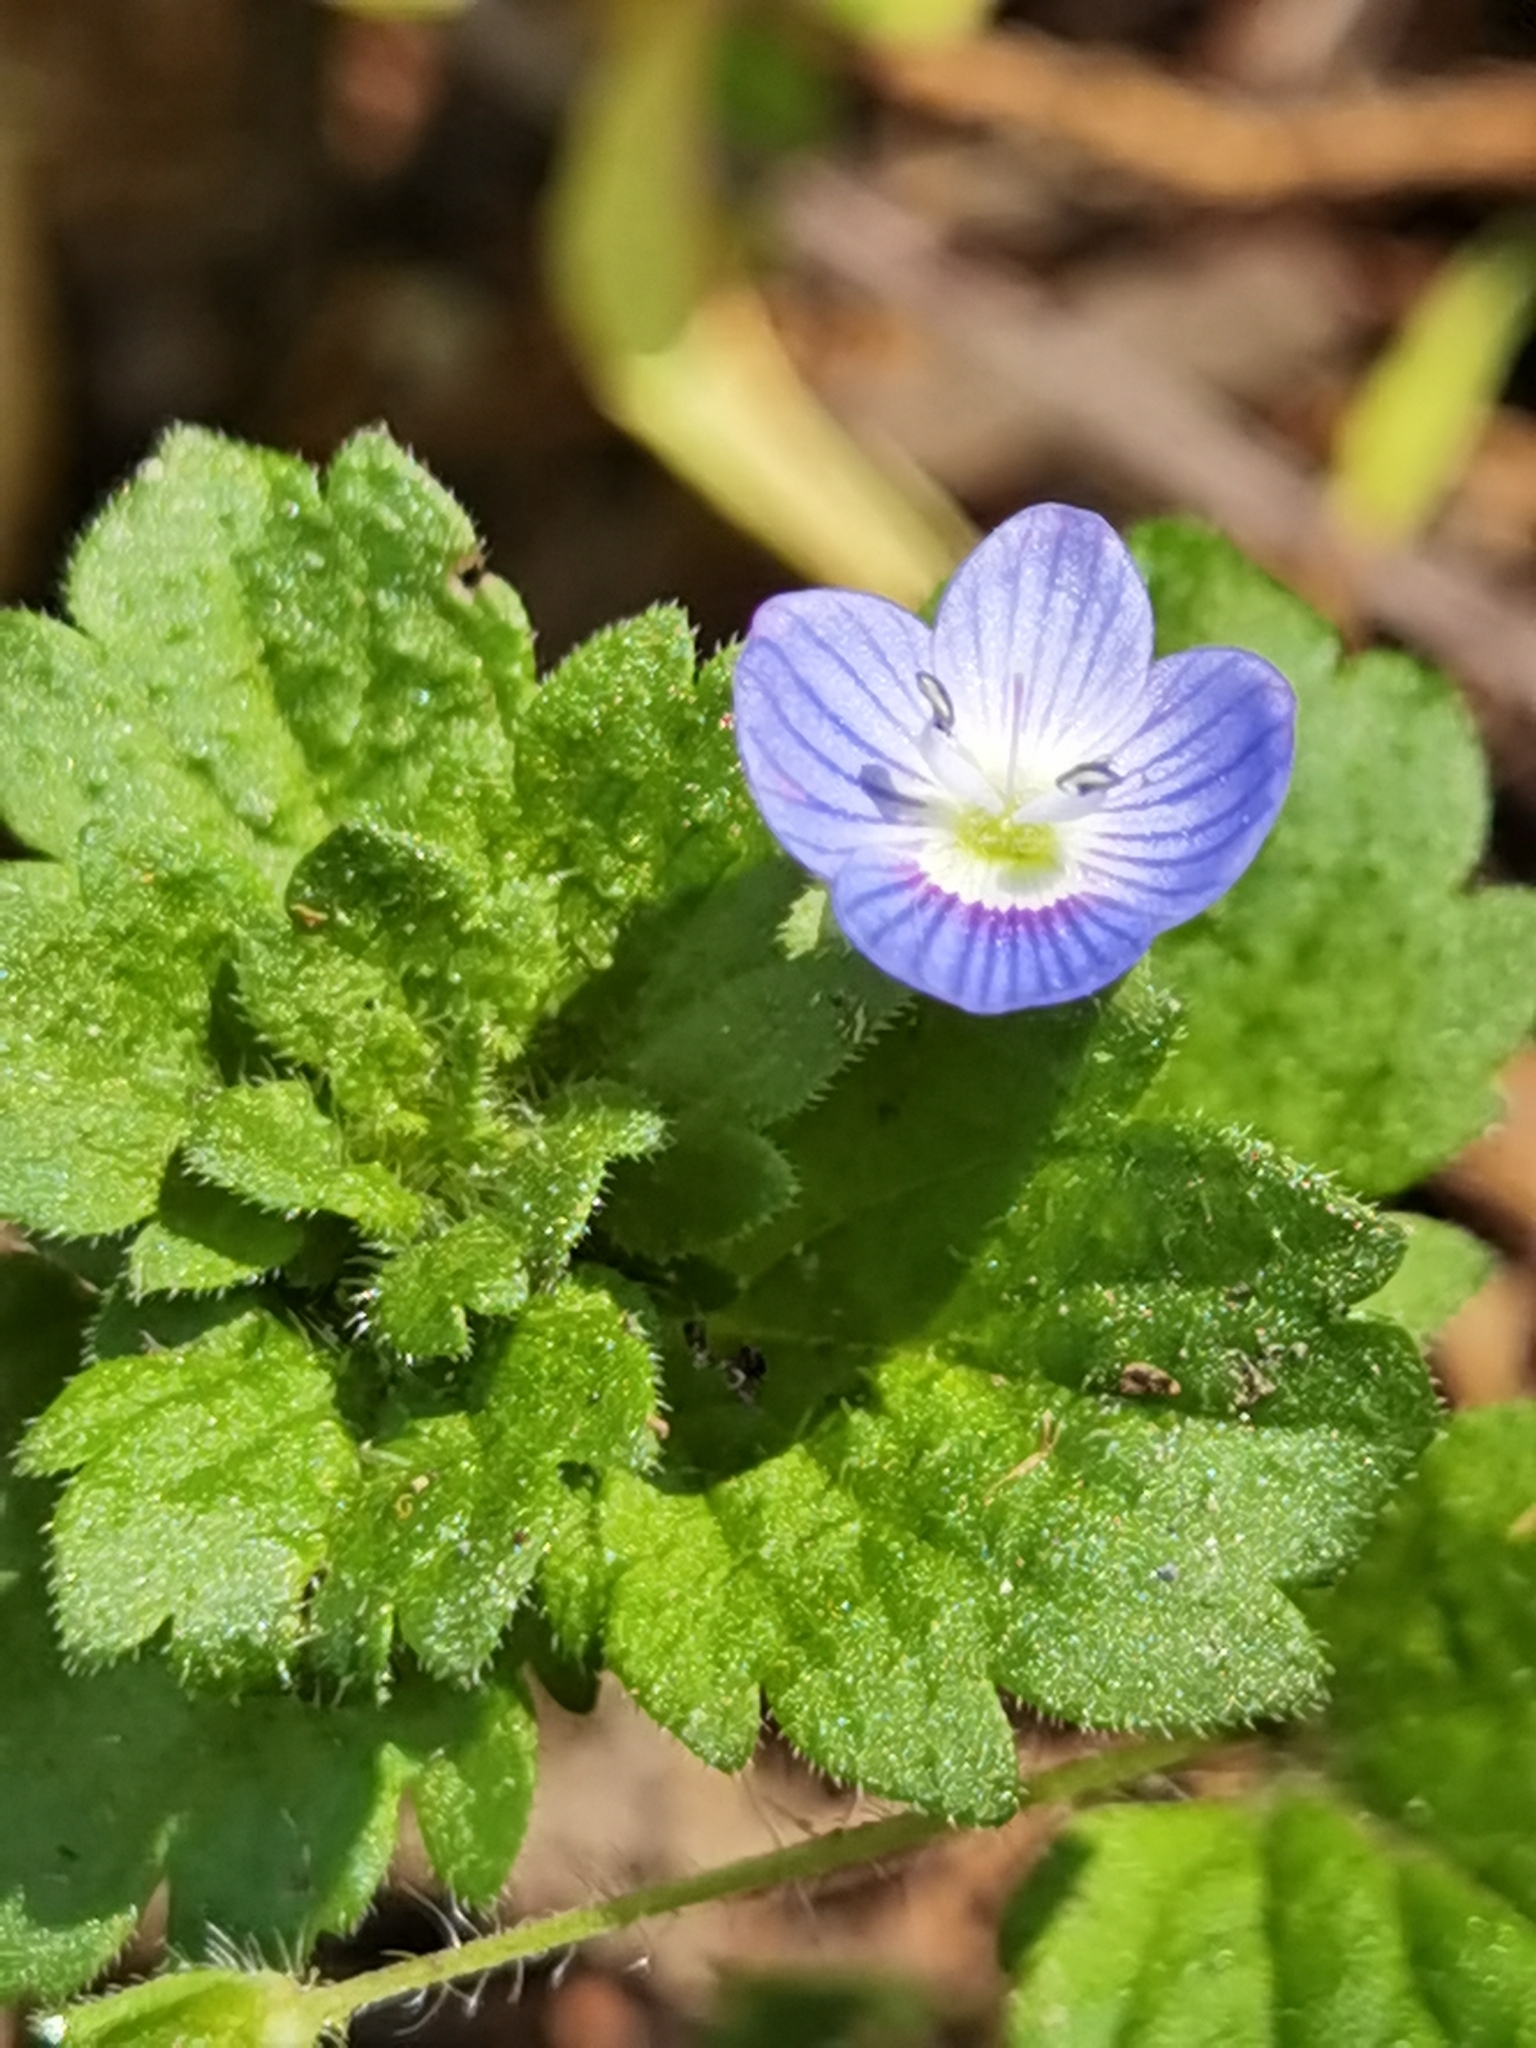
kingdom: Plantae
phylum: Tracheophyta
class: Magnoliopsida
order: Lamiales
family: Plantaginaceae
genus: Veronica
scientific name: Veronica persica
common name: Common field-speedwell
